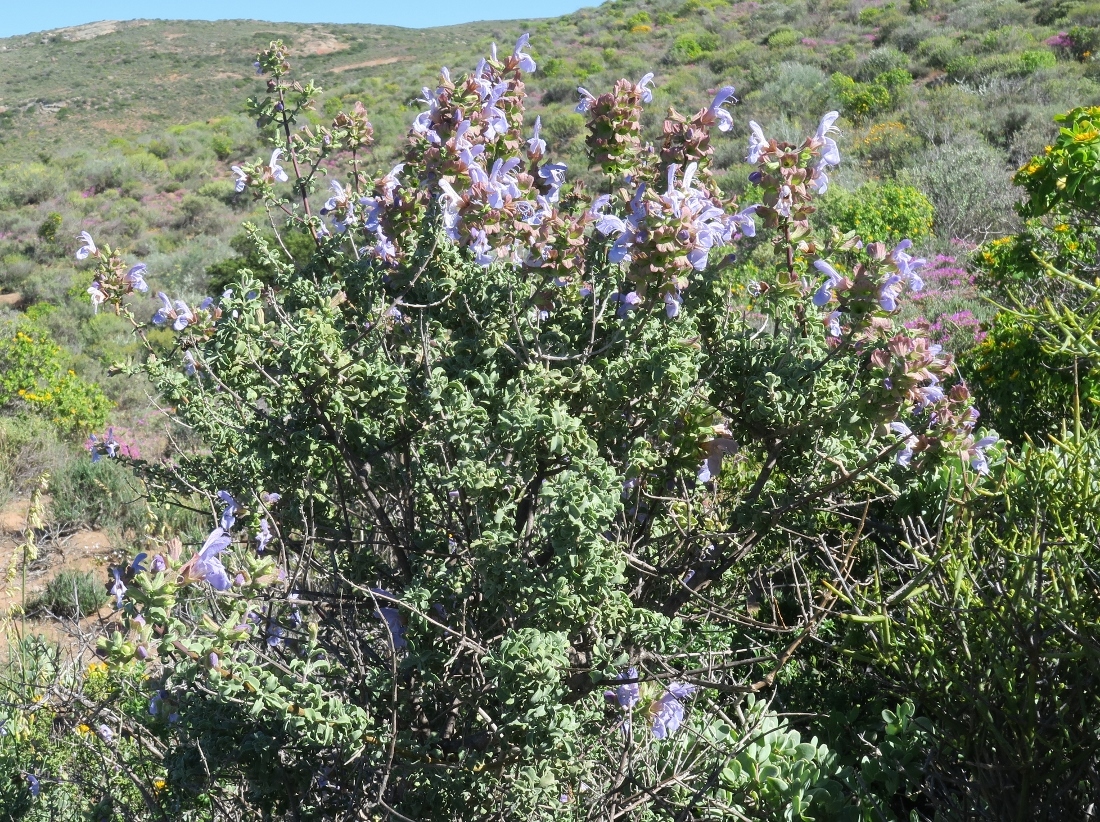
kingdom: Plantae
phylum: Tracheophyta
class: Magnoliopsida
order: Lamiales
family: Lamiaceae
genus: Salvia
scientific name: Salvia dentata
